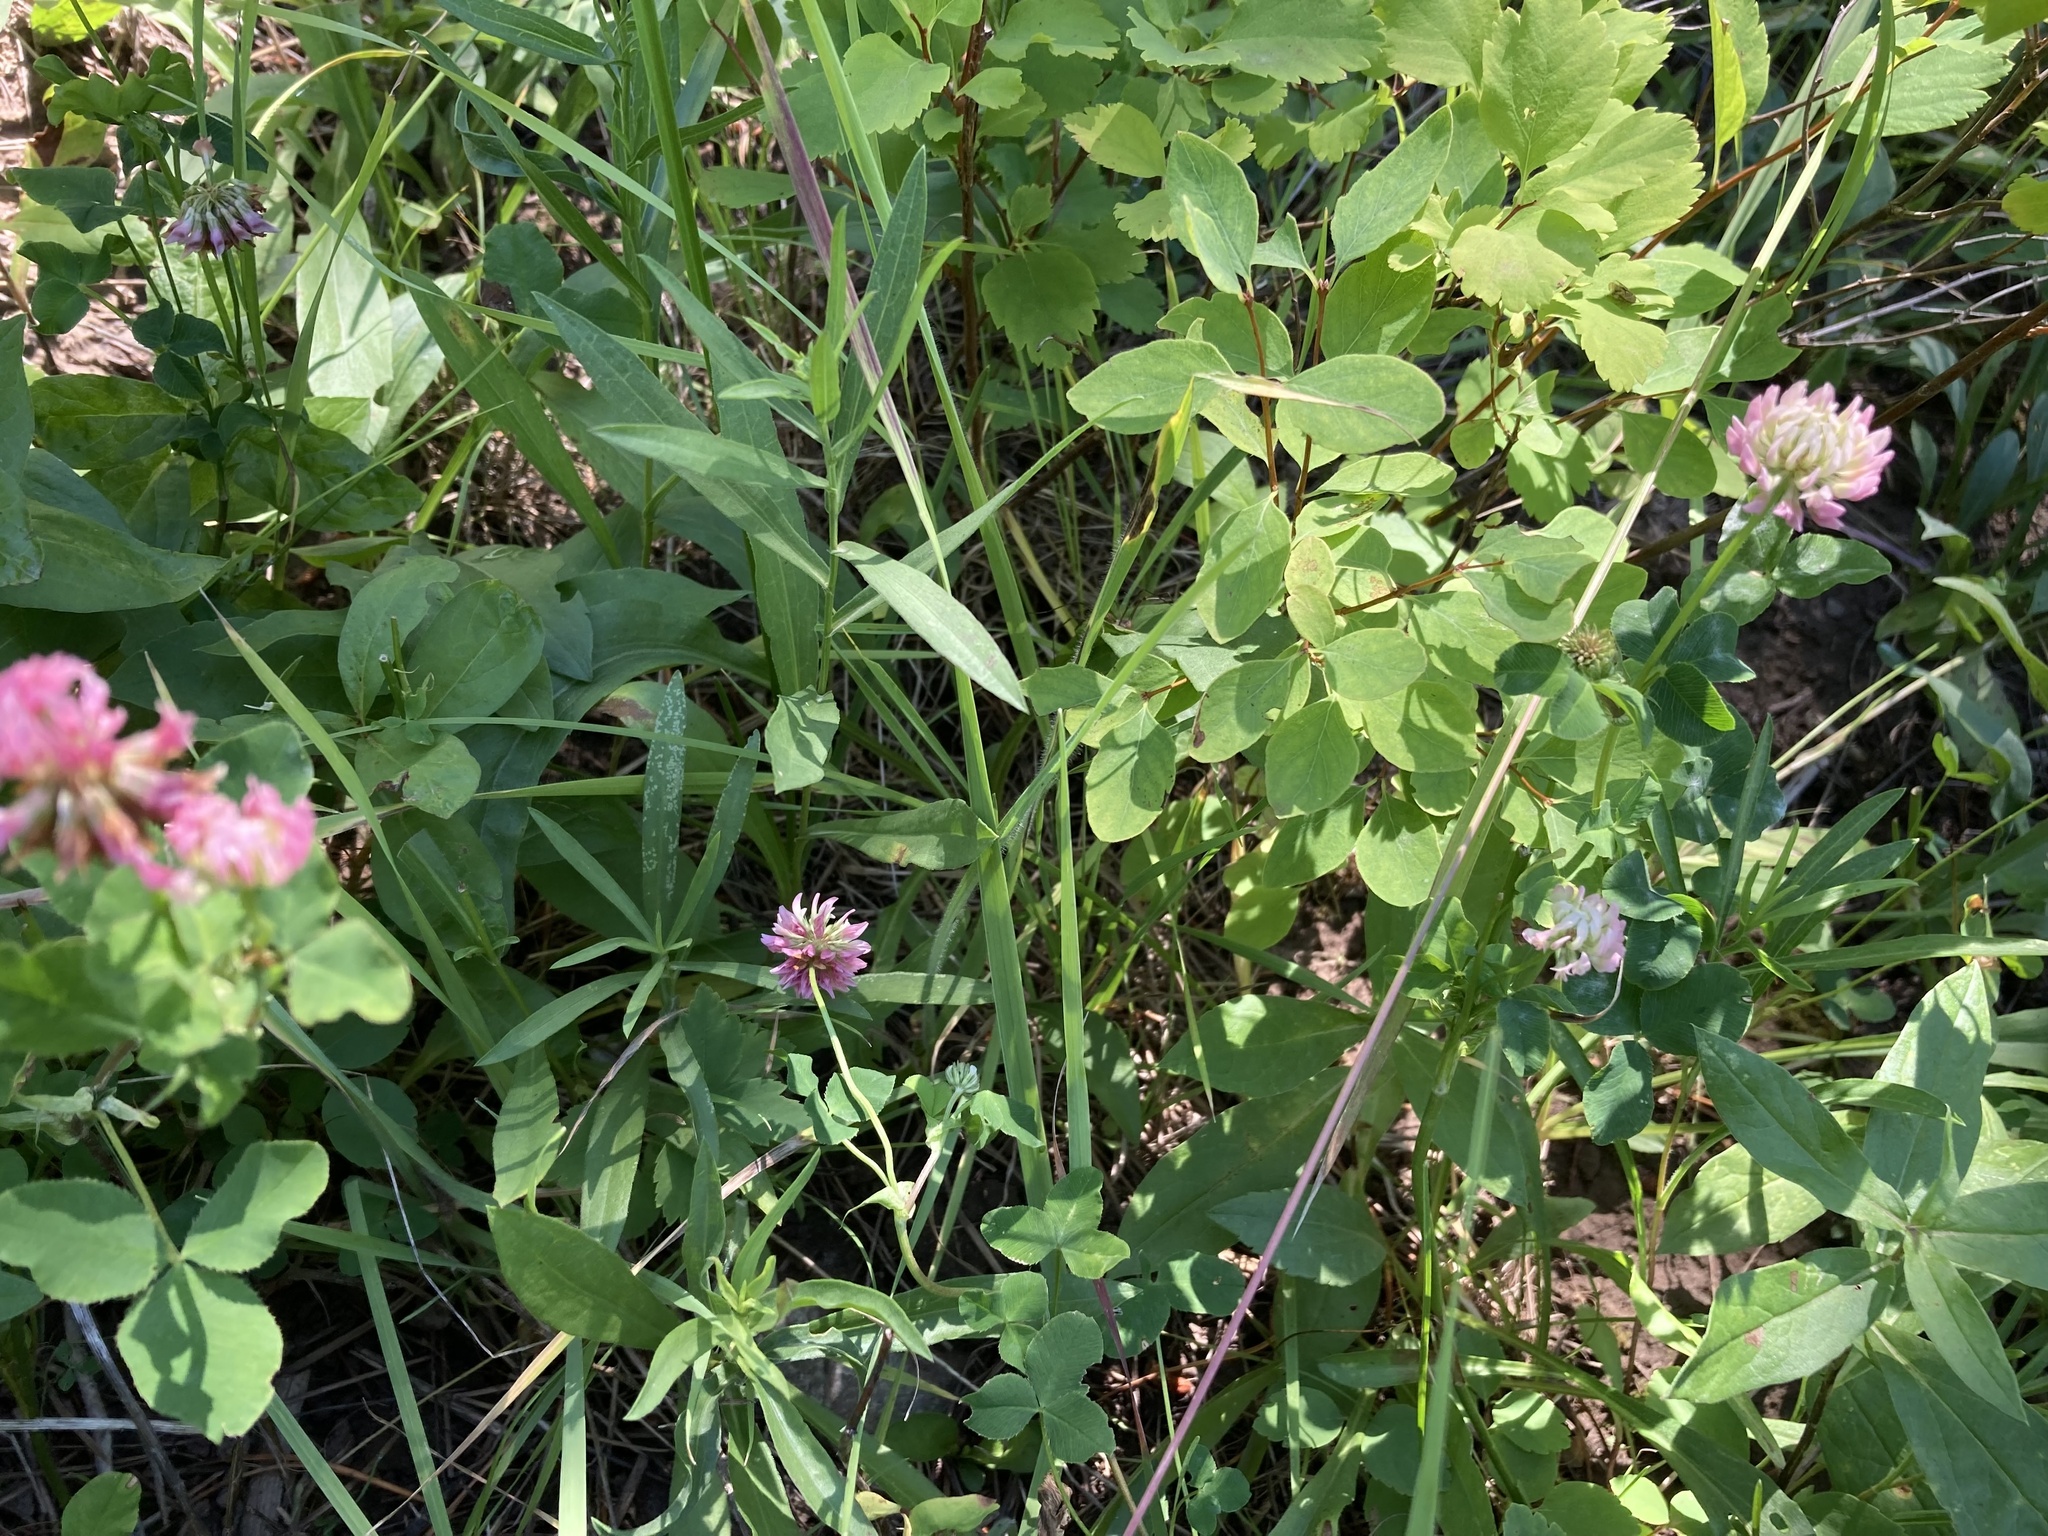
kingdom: Plantae
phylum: Tracheophyta
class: Magnoliopsida
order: Fabales
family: Fabaceae
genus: Trifolium
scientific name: Trifolium hybridum
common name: Alsike clover
